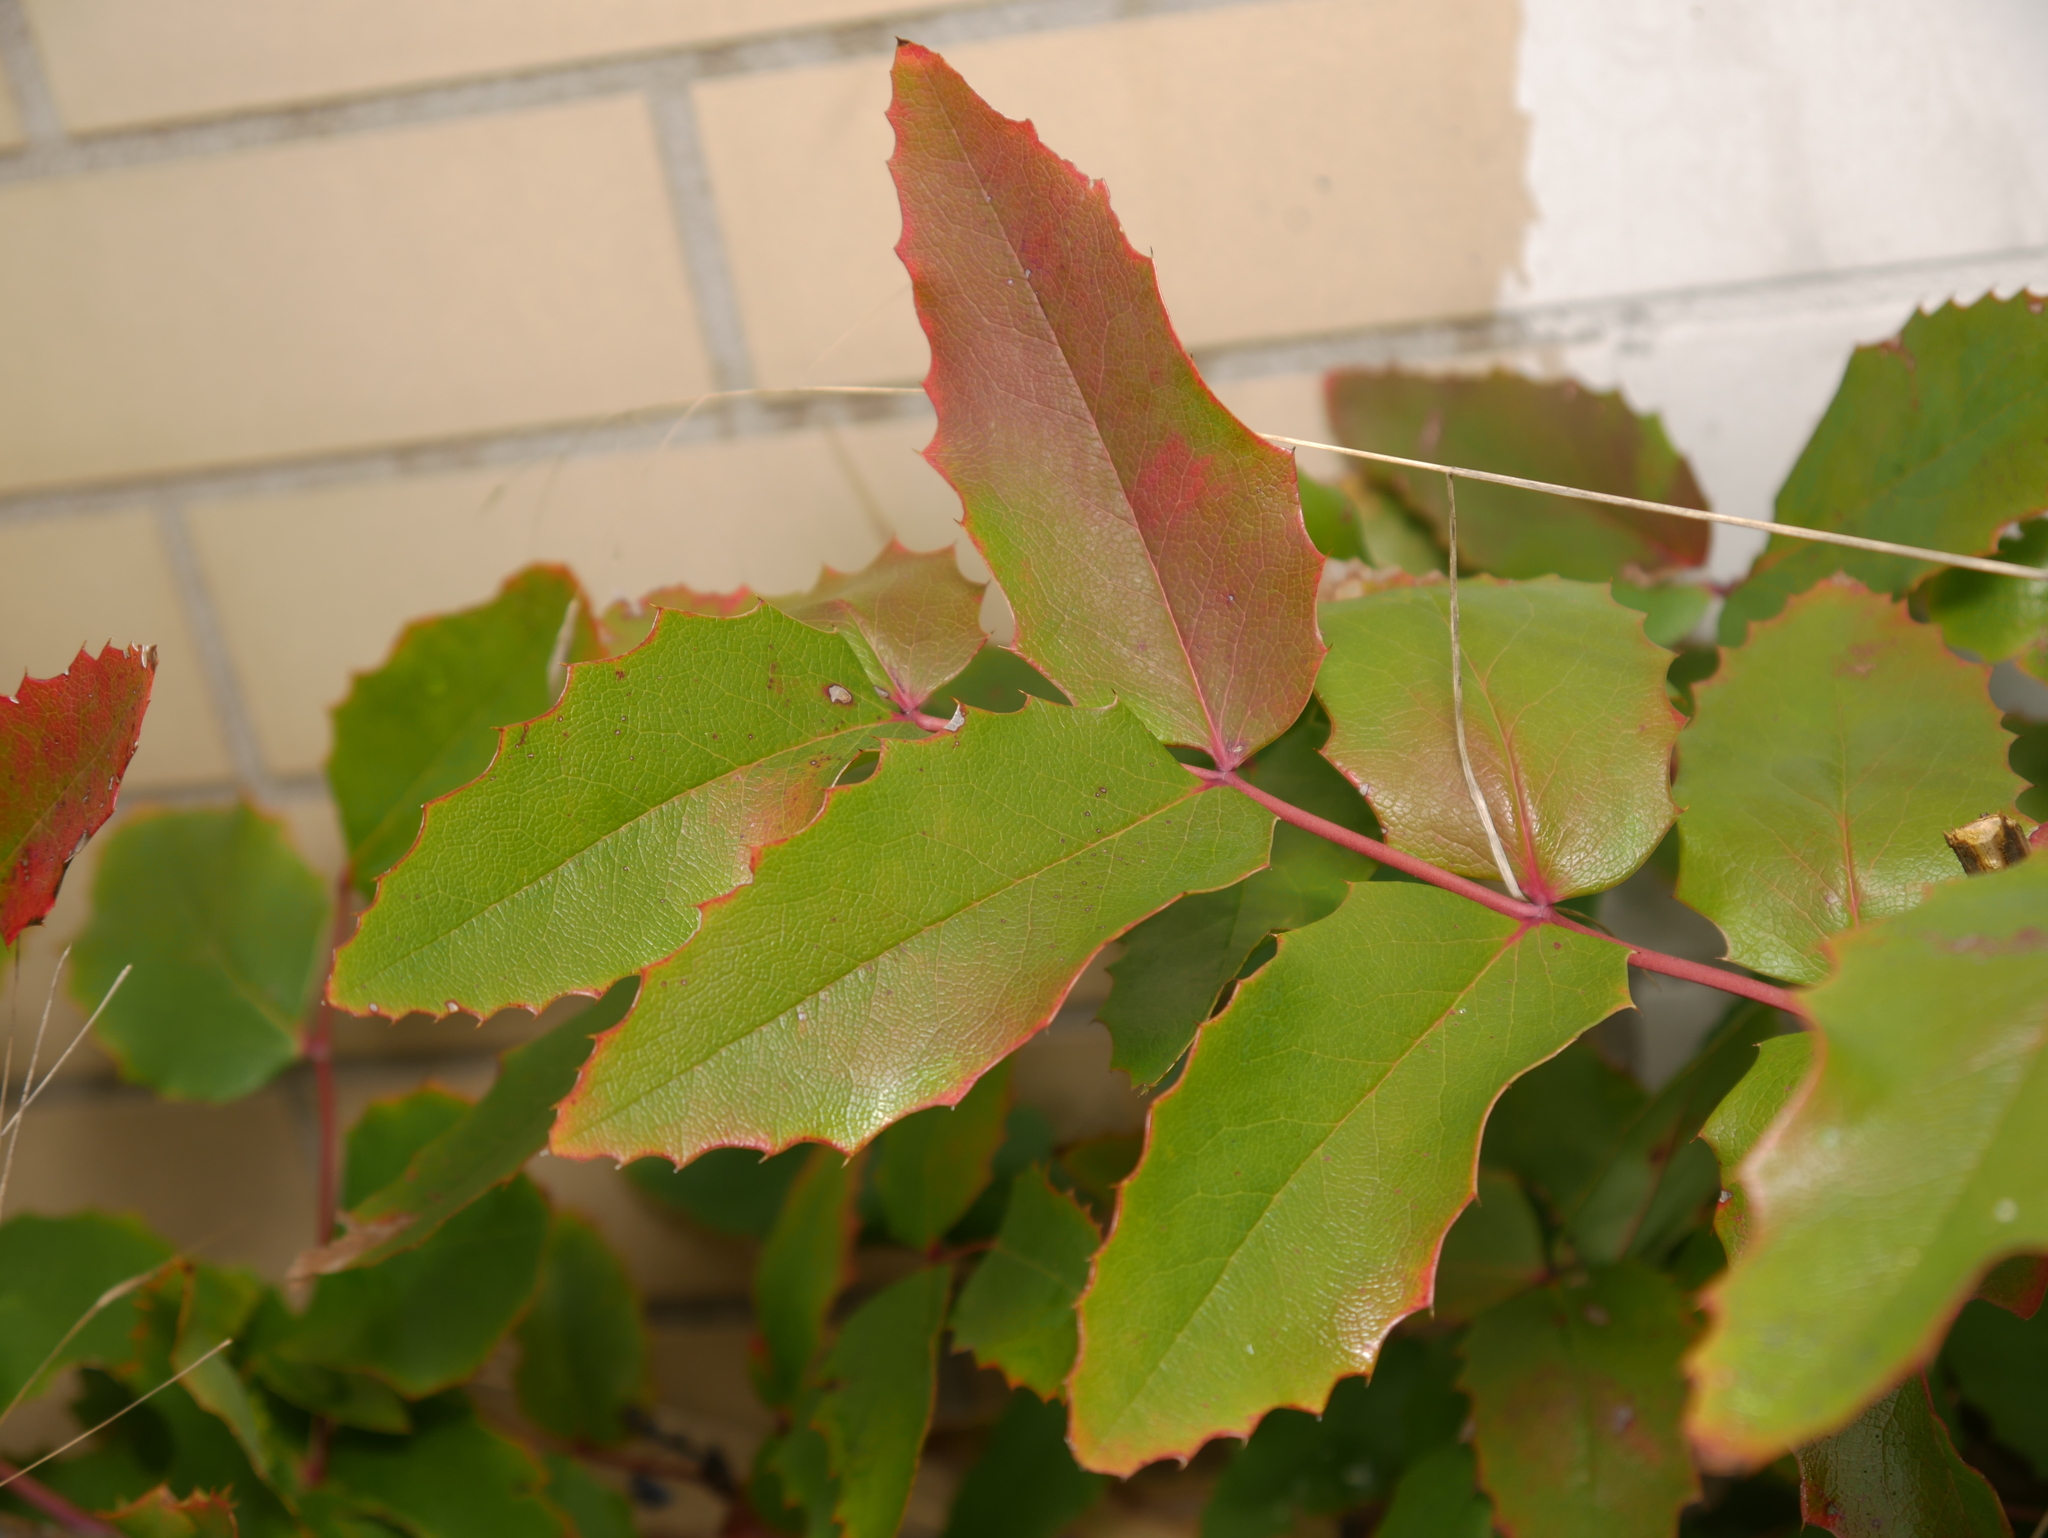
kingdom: Plantae
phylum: Tracheophyta
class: Magnoliopsida
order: Ranunculales
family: Berberidaceae
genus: Mahonia
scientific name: Mahonia aquifolium
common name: Oregon-grape
